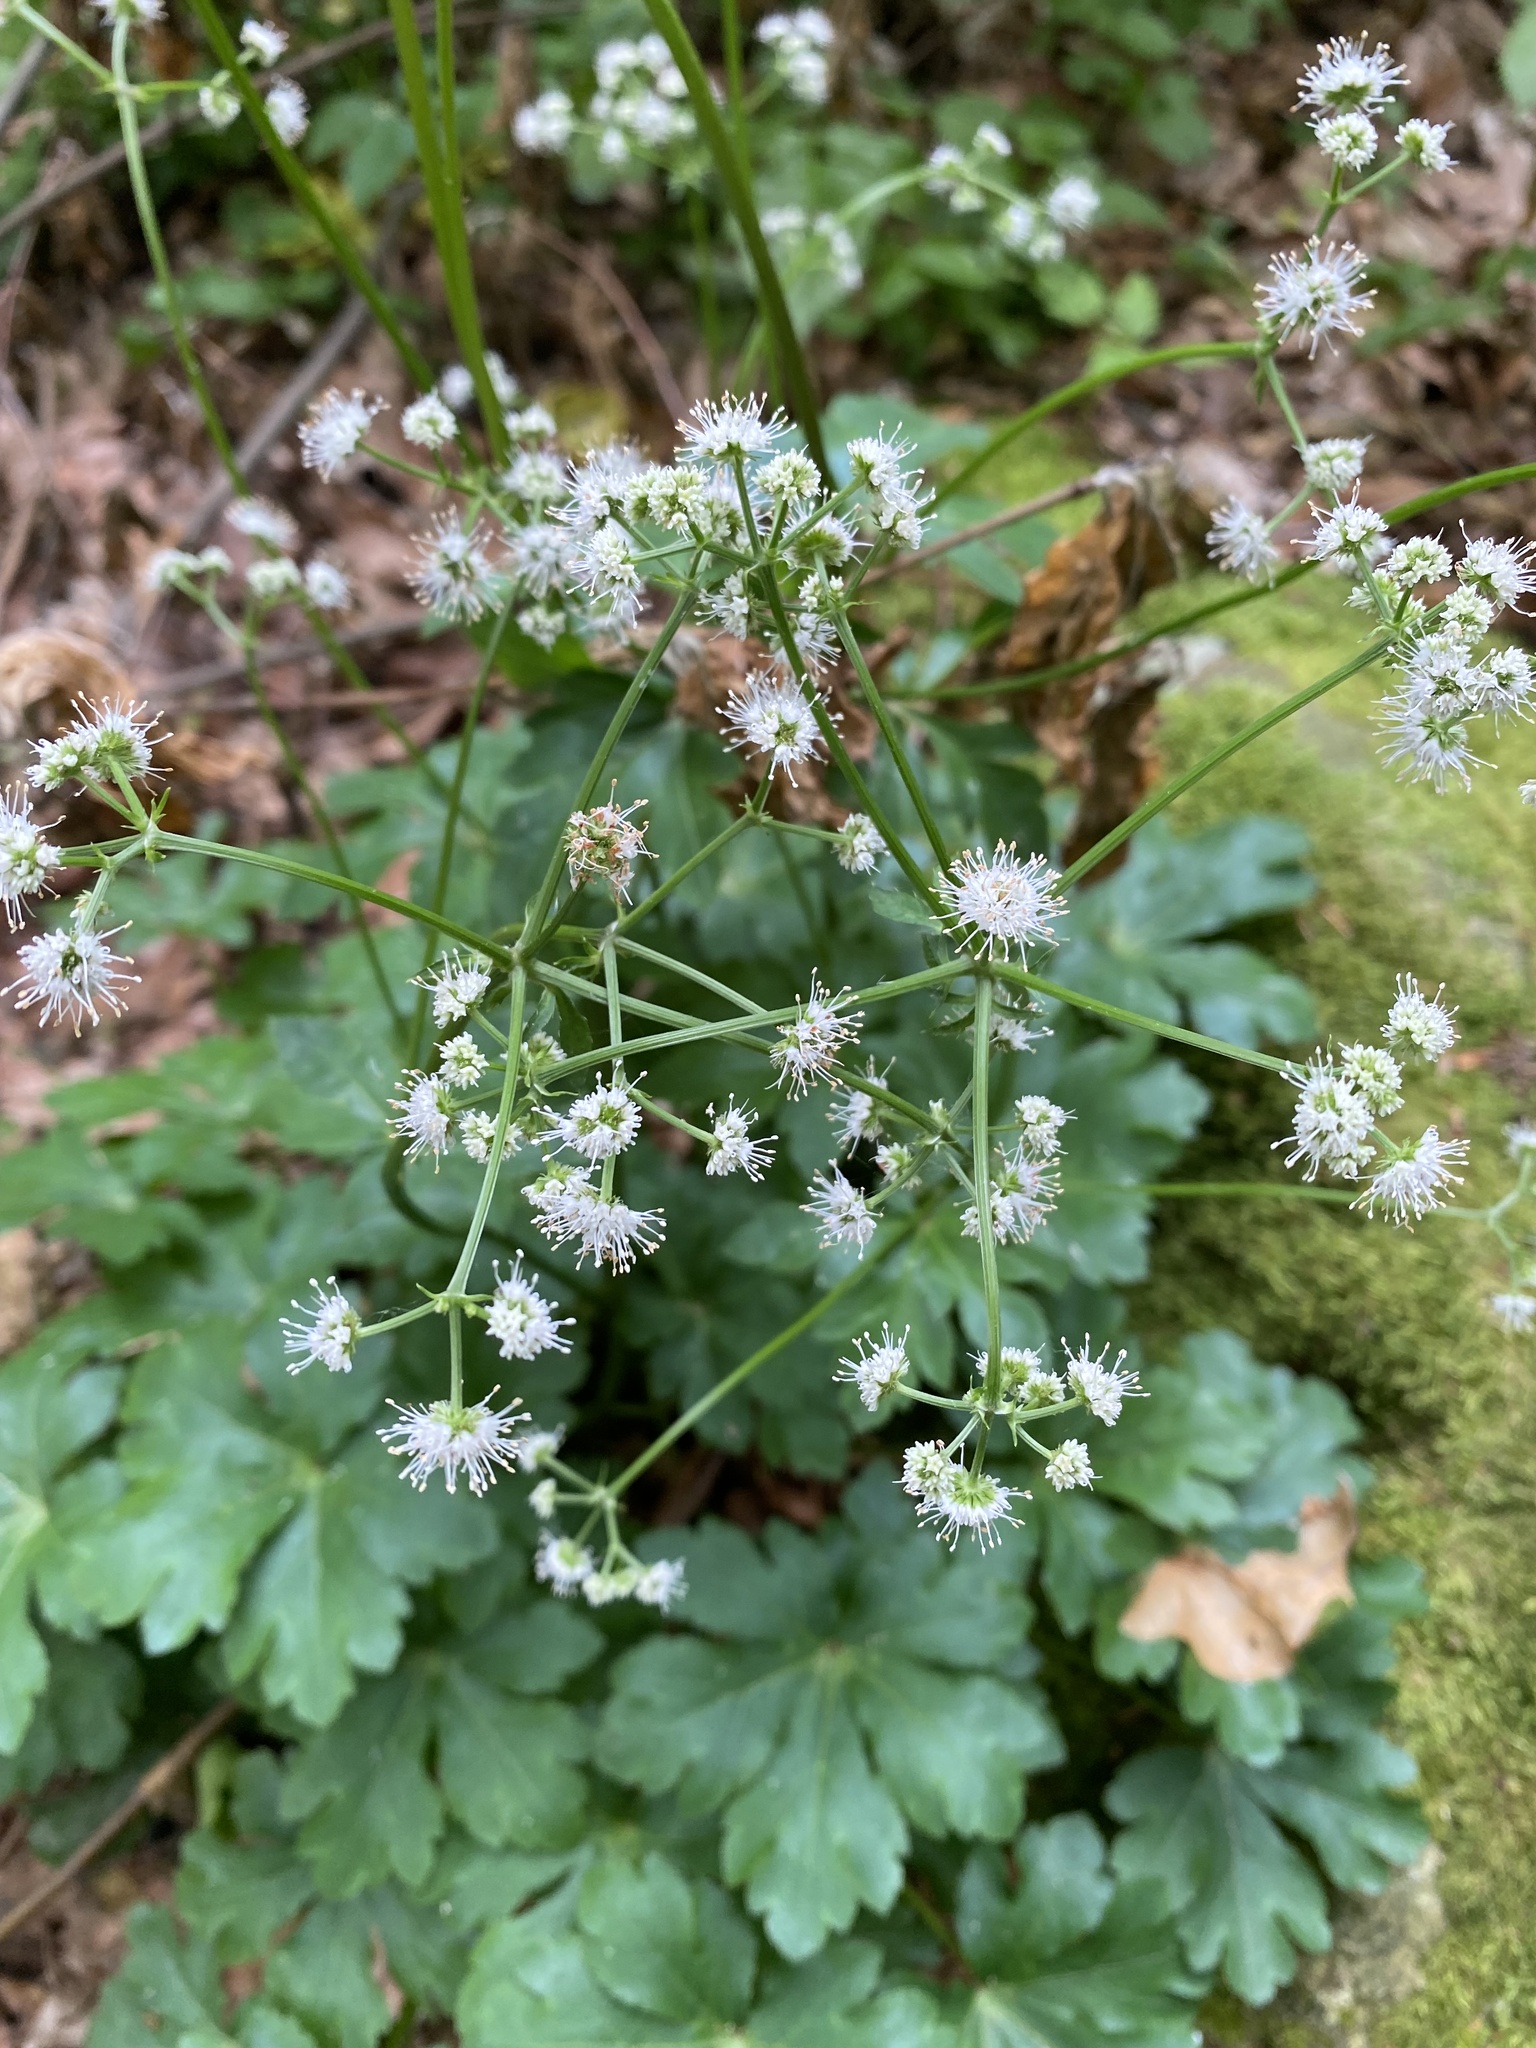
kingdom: Plantae
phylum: Tracheophyta
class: Magnoliopsida
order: Apiales
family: Apiaceae
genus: Sanicula
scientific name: Sanicula europaea
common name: Sanicle
